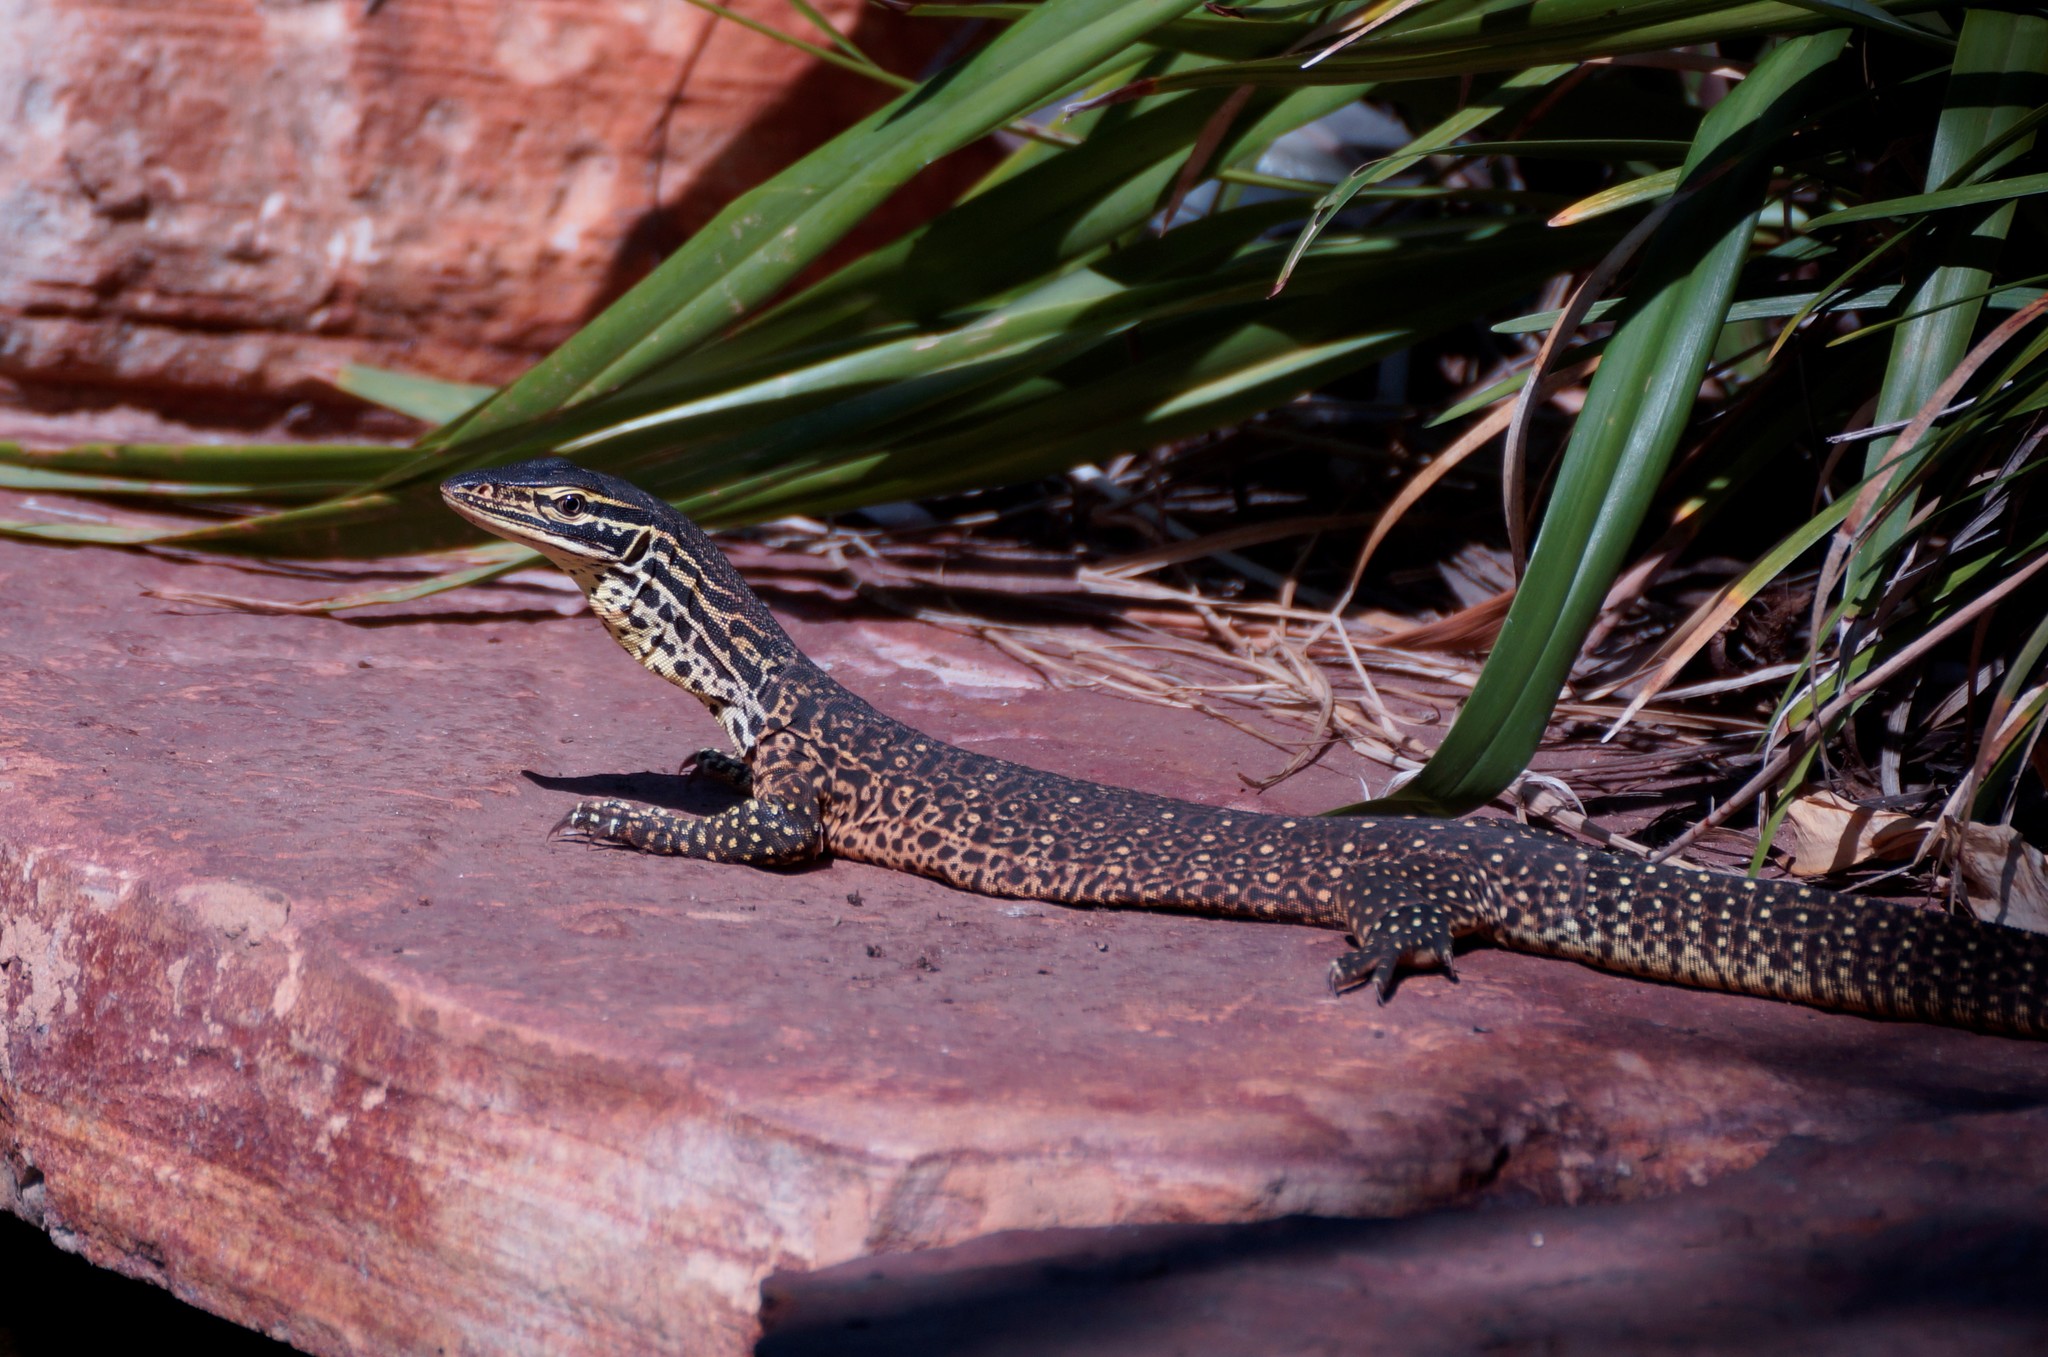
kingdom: Animalia
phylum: Chordata
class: Squamata
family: Varanidae
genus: Varanus
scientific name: Varanus panoptes
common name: Yellow-spotted monitor
